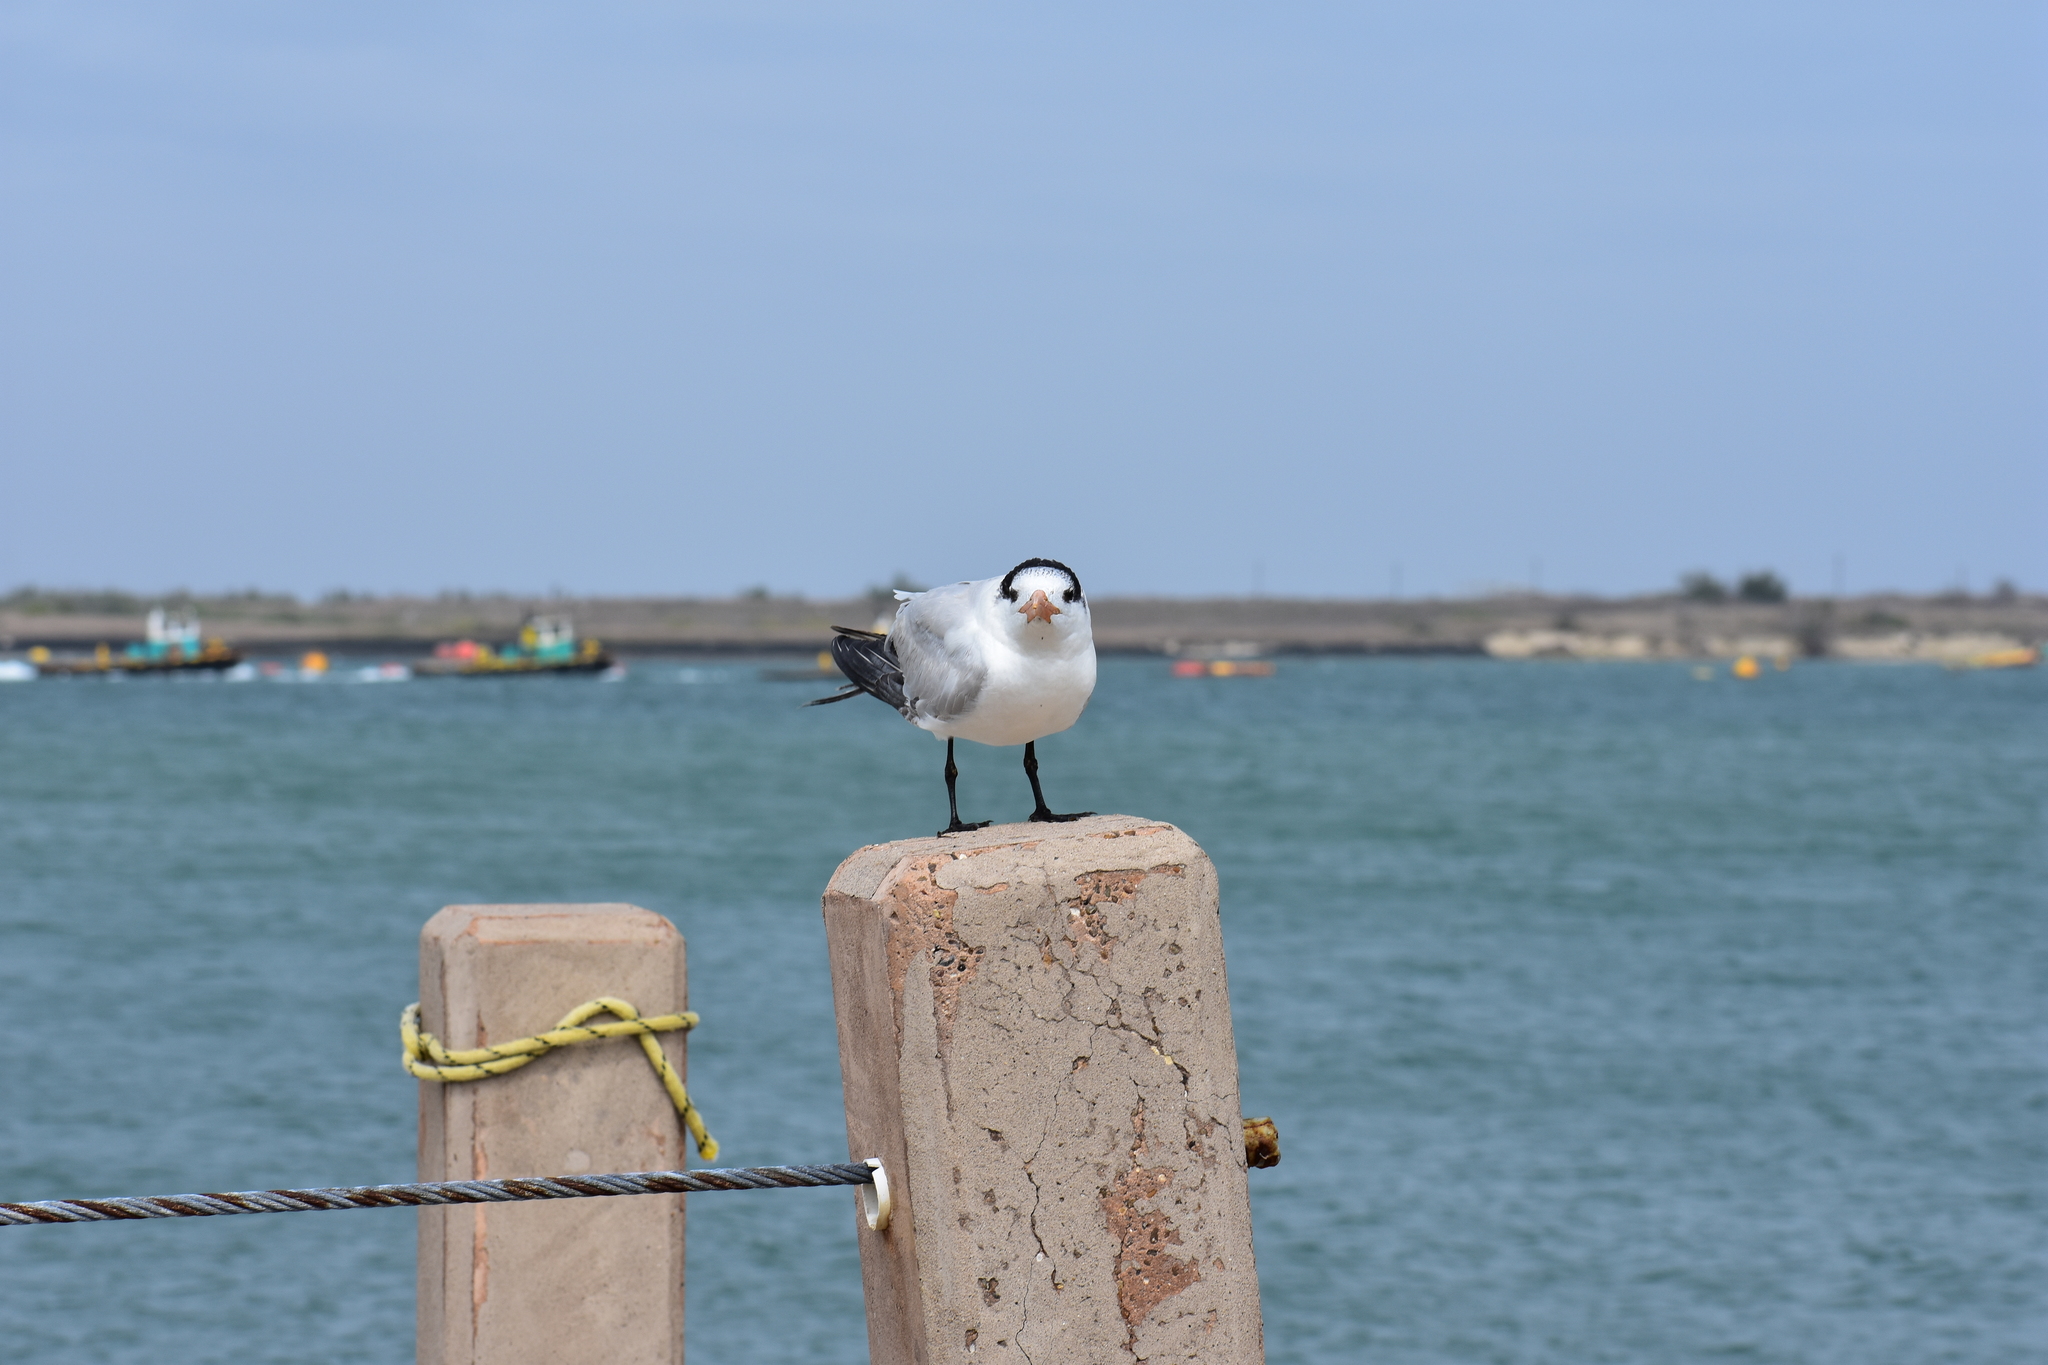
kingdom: Animalia
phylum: Chordata
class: Aves
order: Charadriiformes
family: Laridae
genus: Thalasseus
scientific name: Thalasseus maximus
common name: Royal tern
